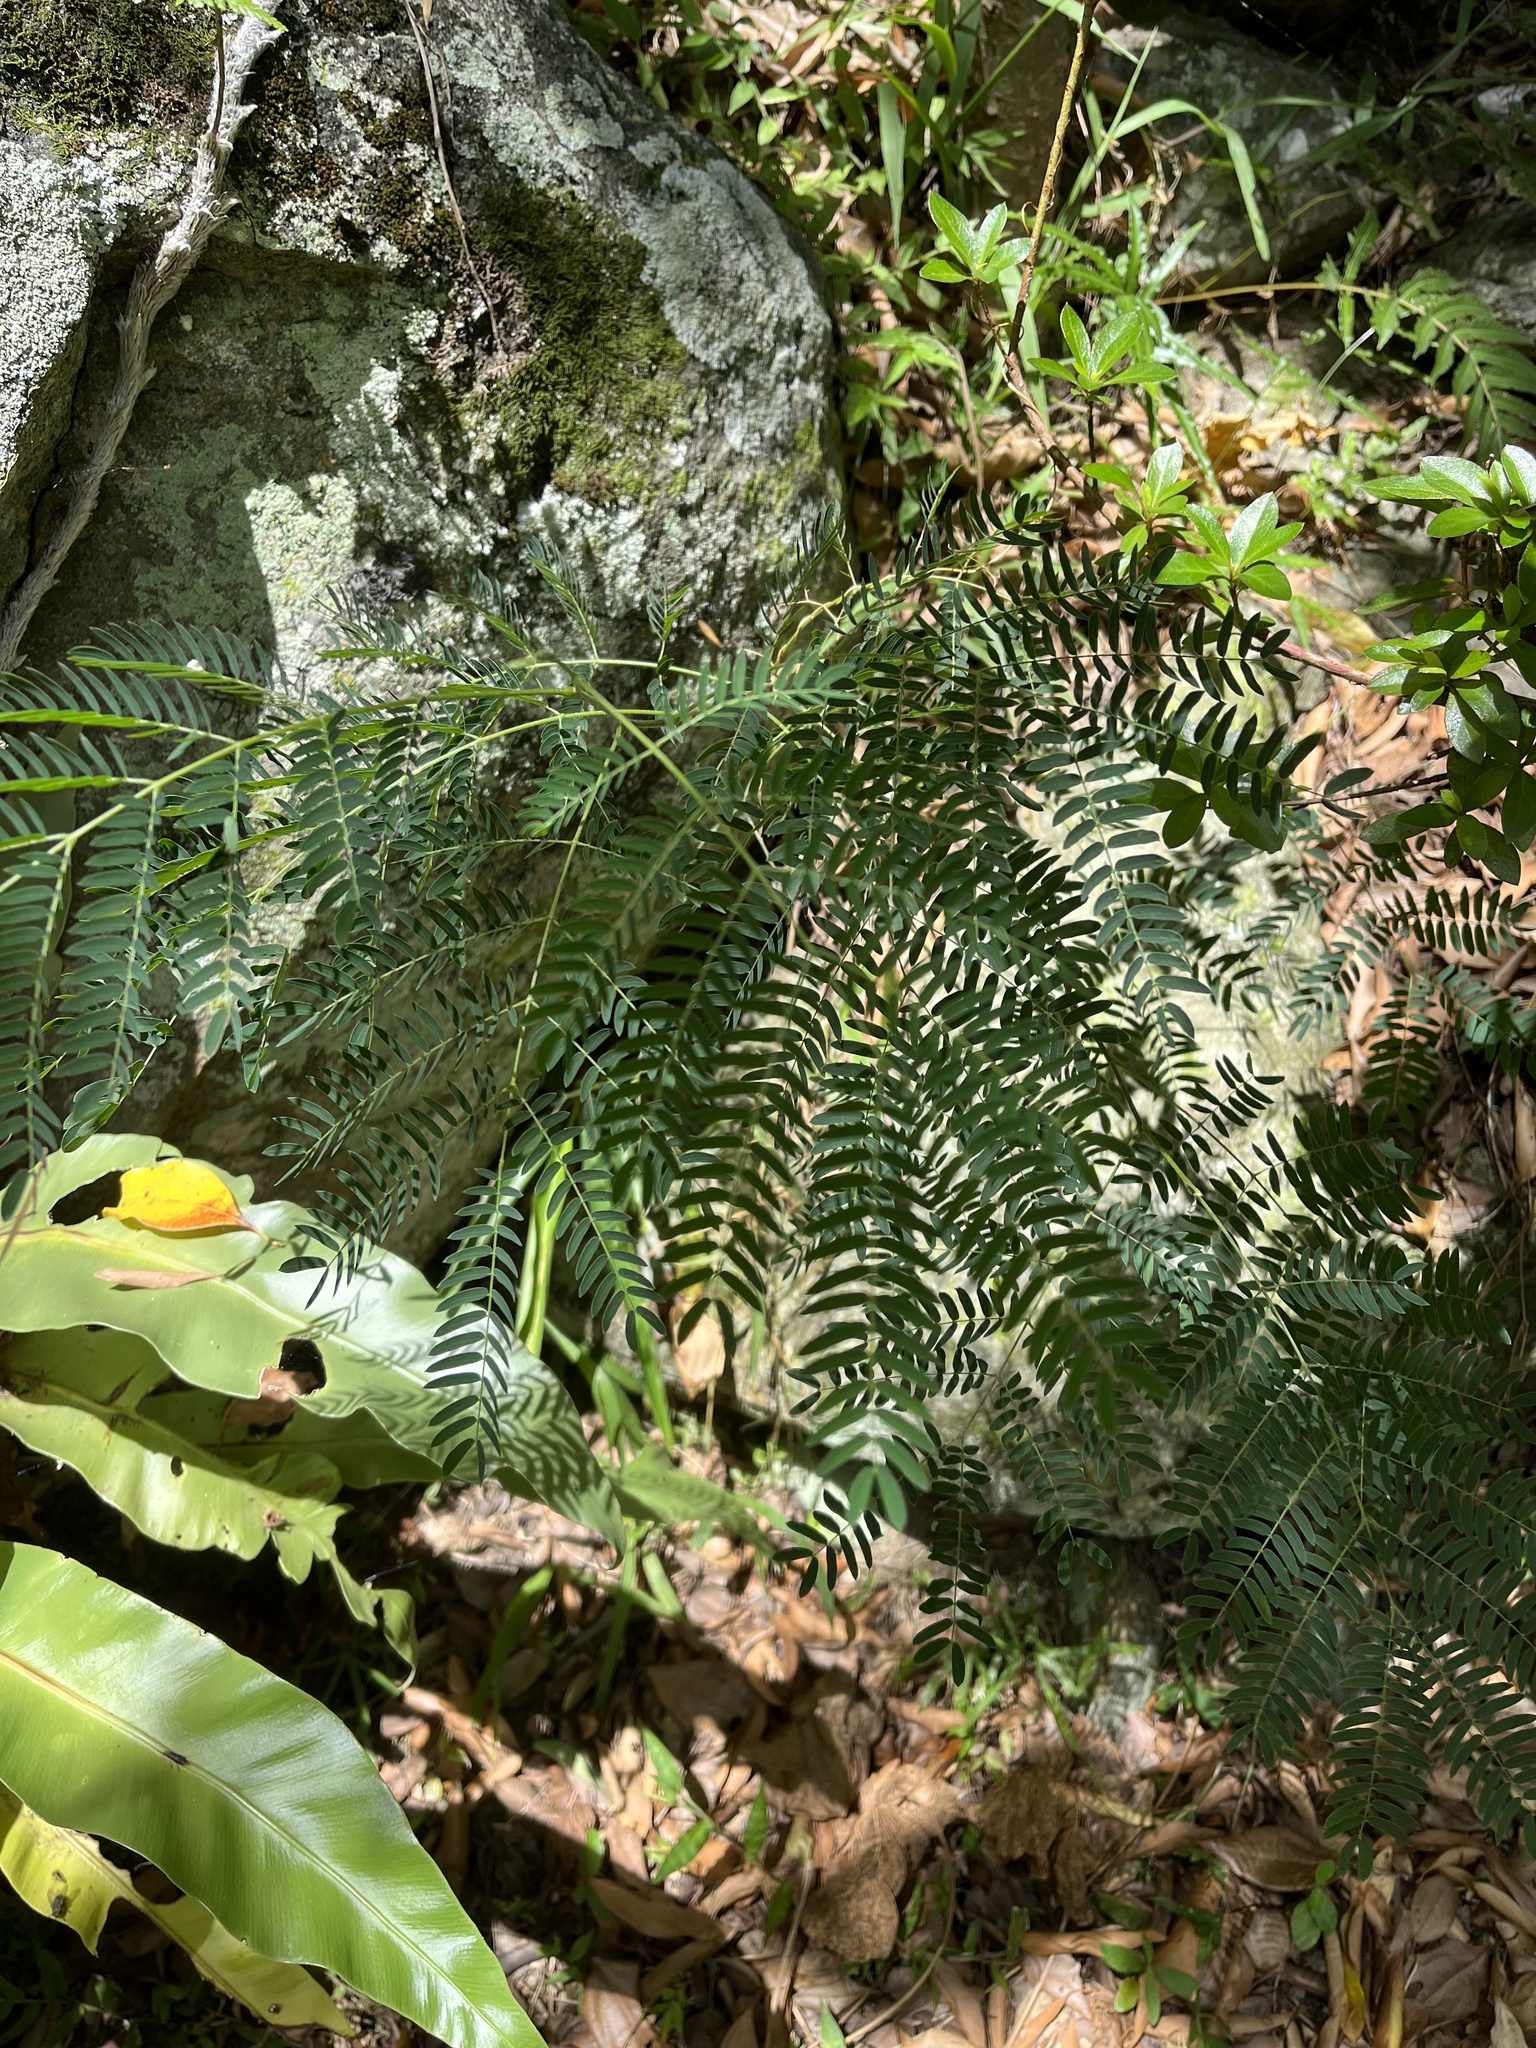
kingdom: Plantae
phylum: Tracheophyta
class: Magnoliopsida
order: Fabales
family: Fabaceae
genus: Leucaena
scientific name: Leucaena leucocephala
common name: White leadtree
